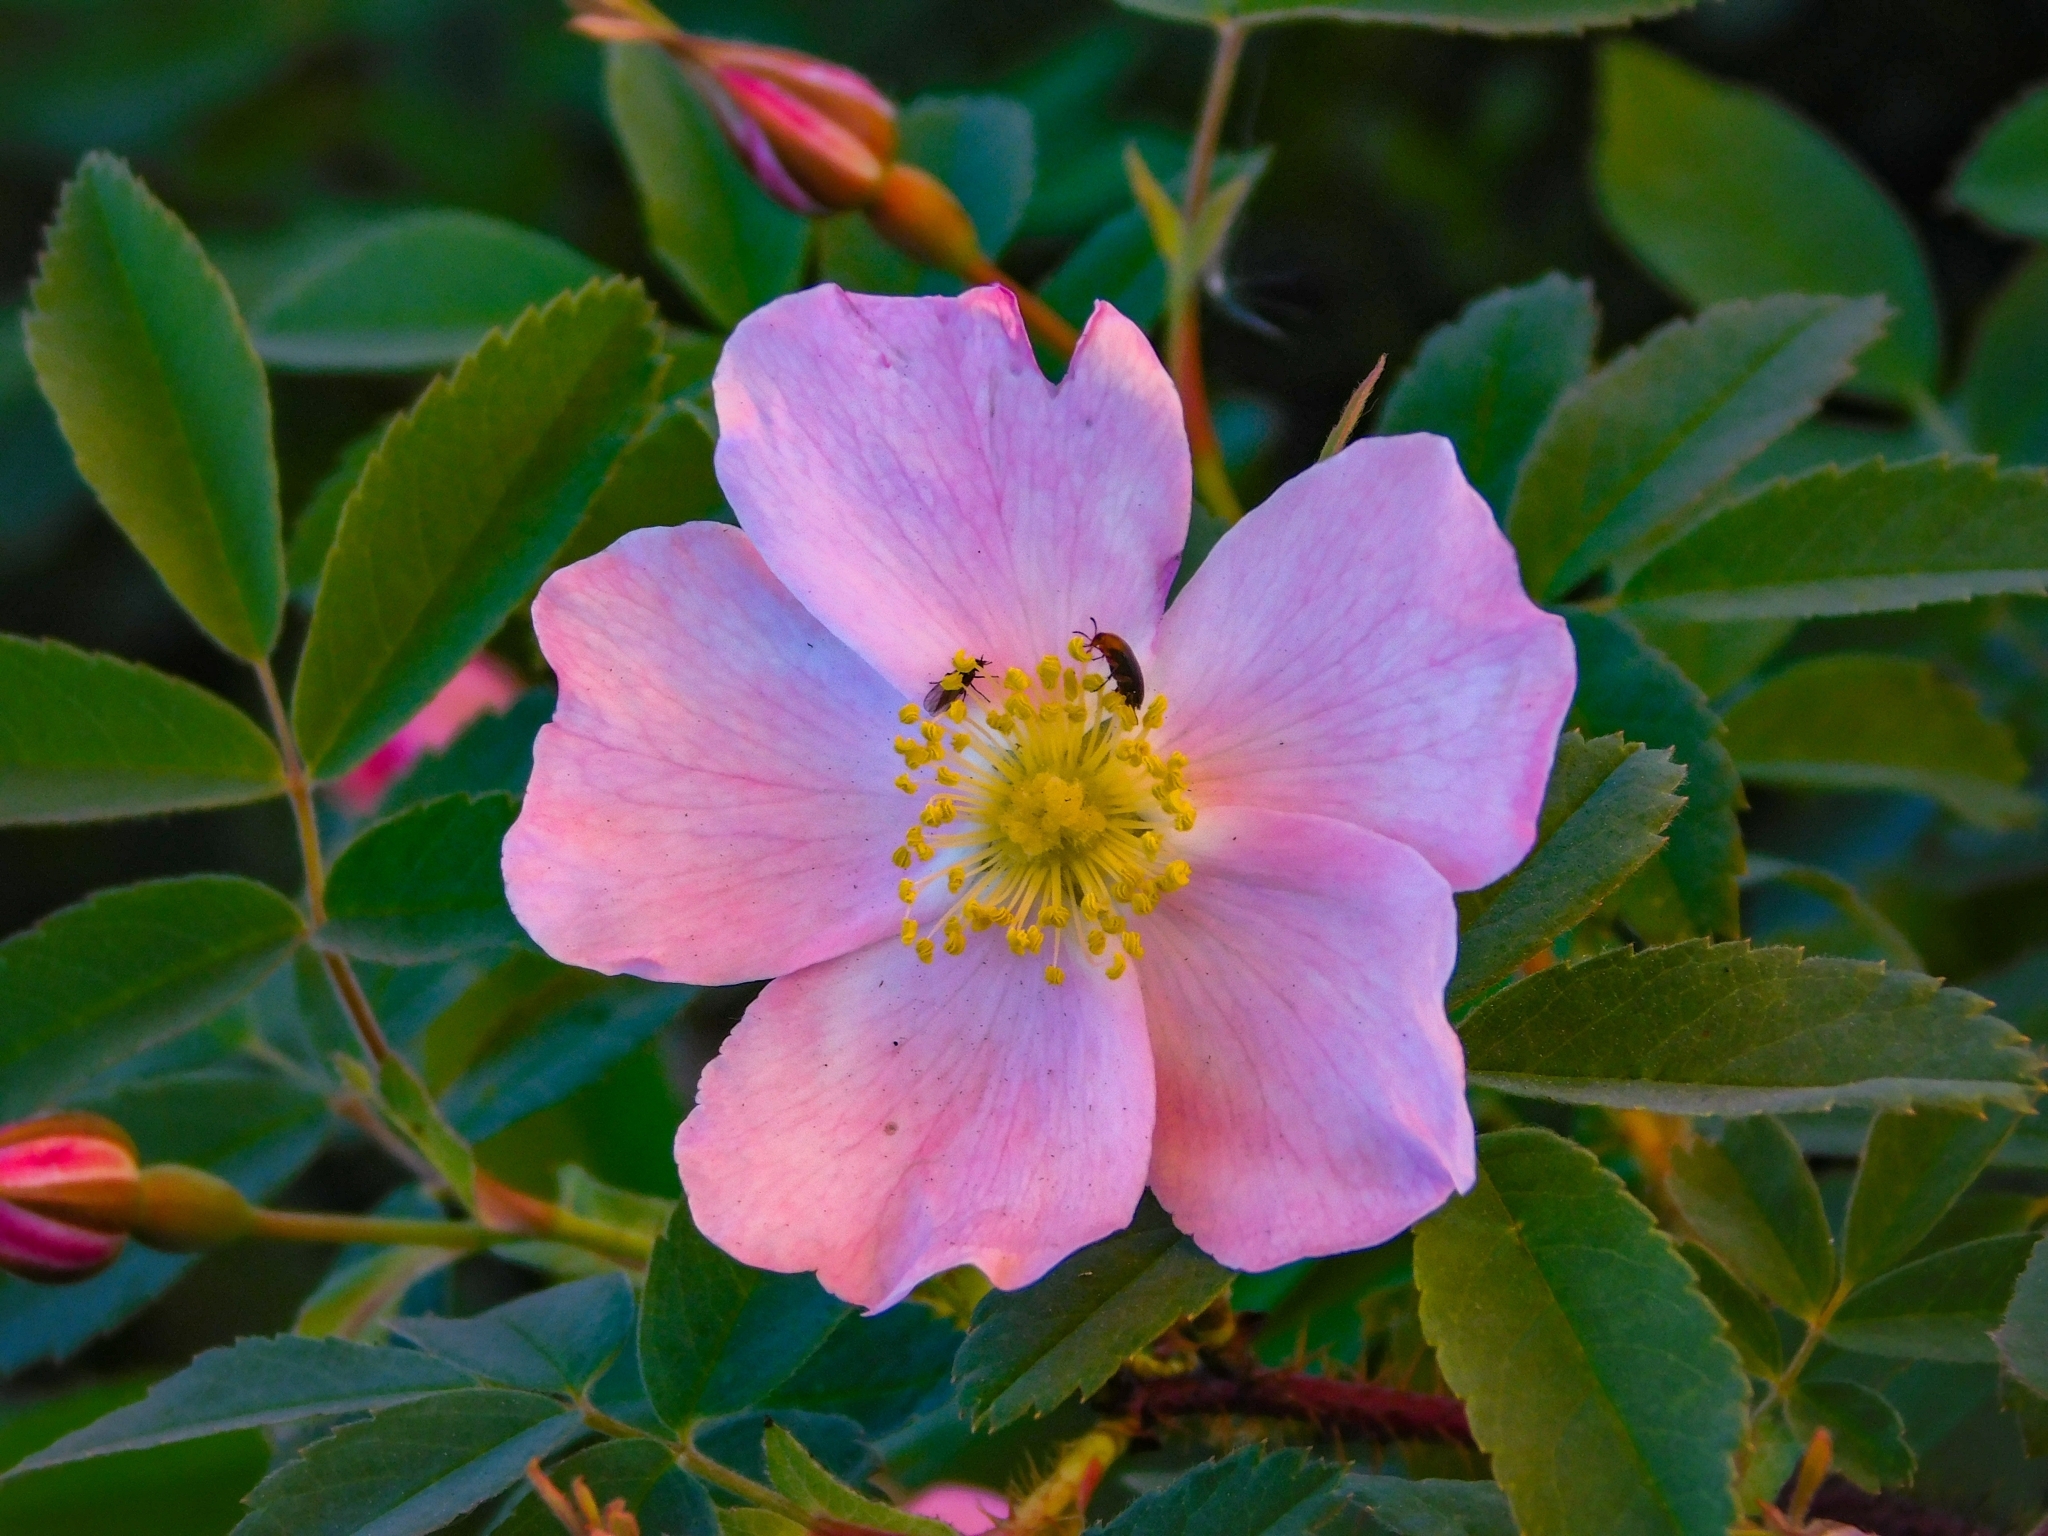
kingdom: Plantae
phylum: Tracheophyta
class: Magnoliopsida
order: Rosales
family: Rosaceae
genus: Rosa
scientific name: Rosa acicularis
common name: Prickly rose
